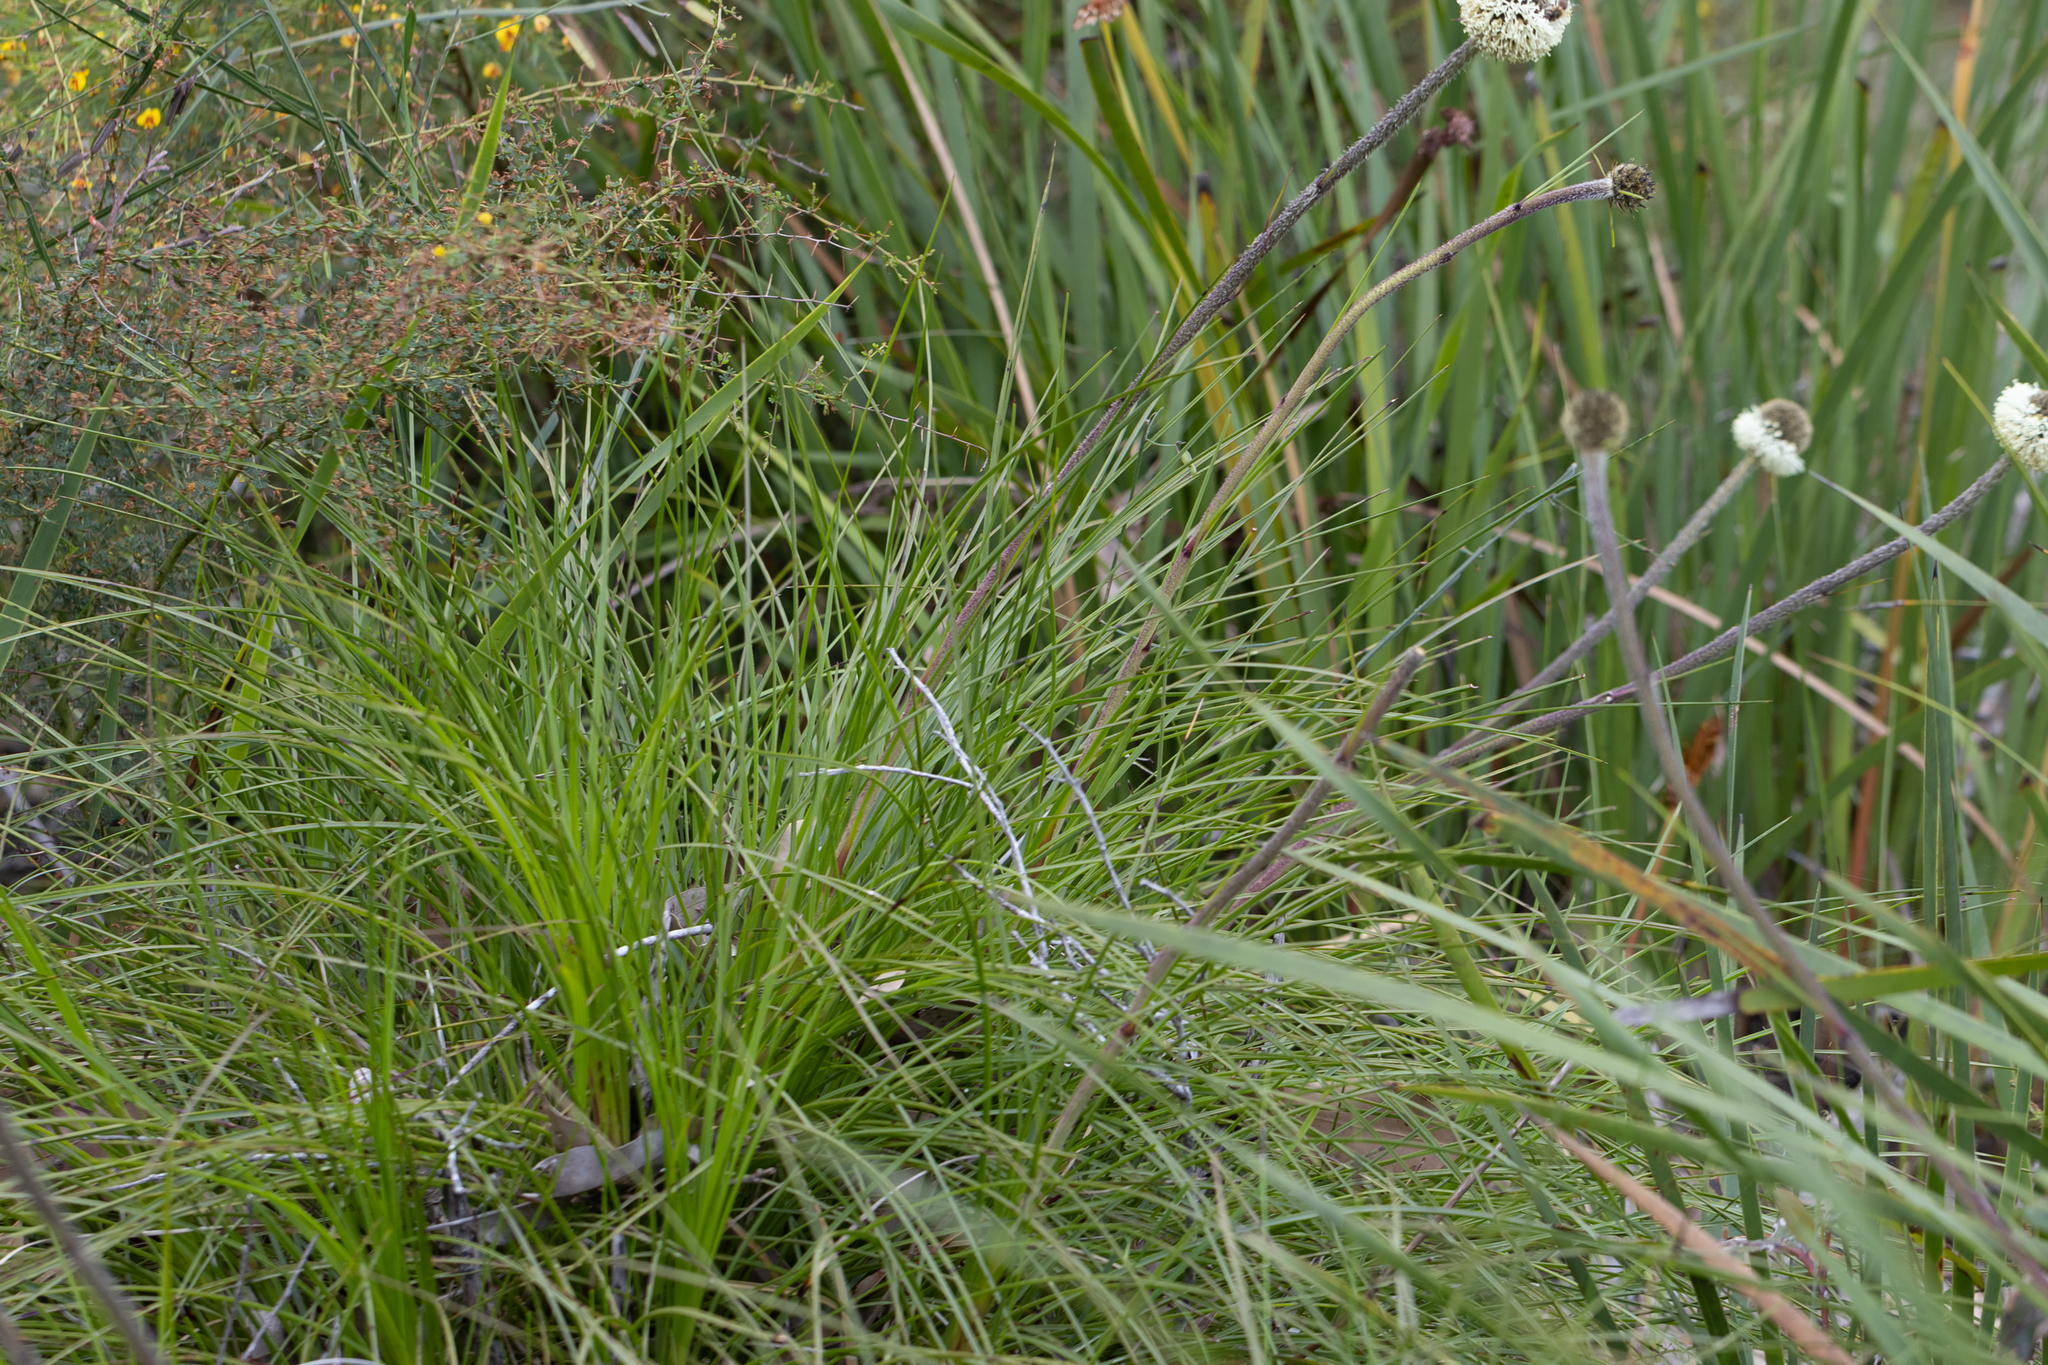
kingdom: Plantae
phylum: Tracheophyta
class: Liliopsida
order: Arecales
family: Dasypogonaceae
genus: Dasypogon
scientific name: Dasypogon bromeliifolius
